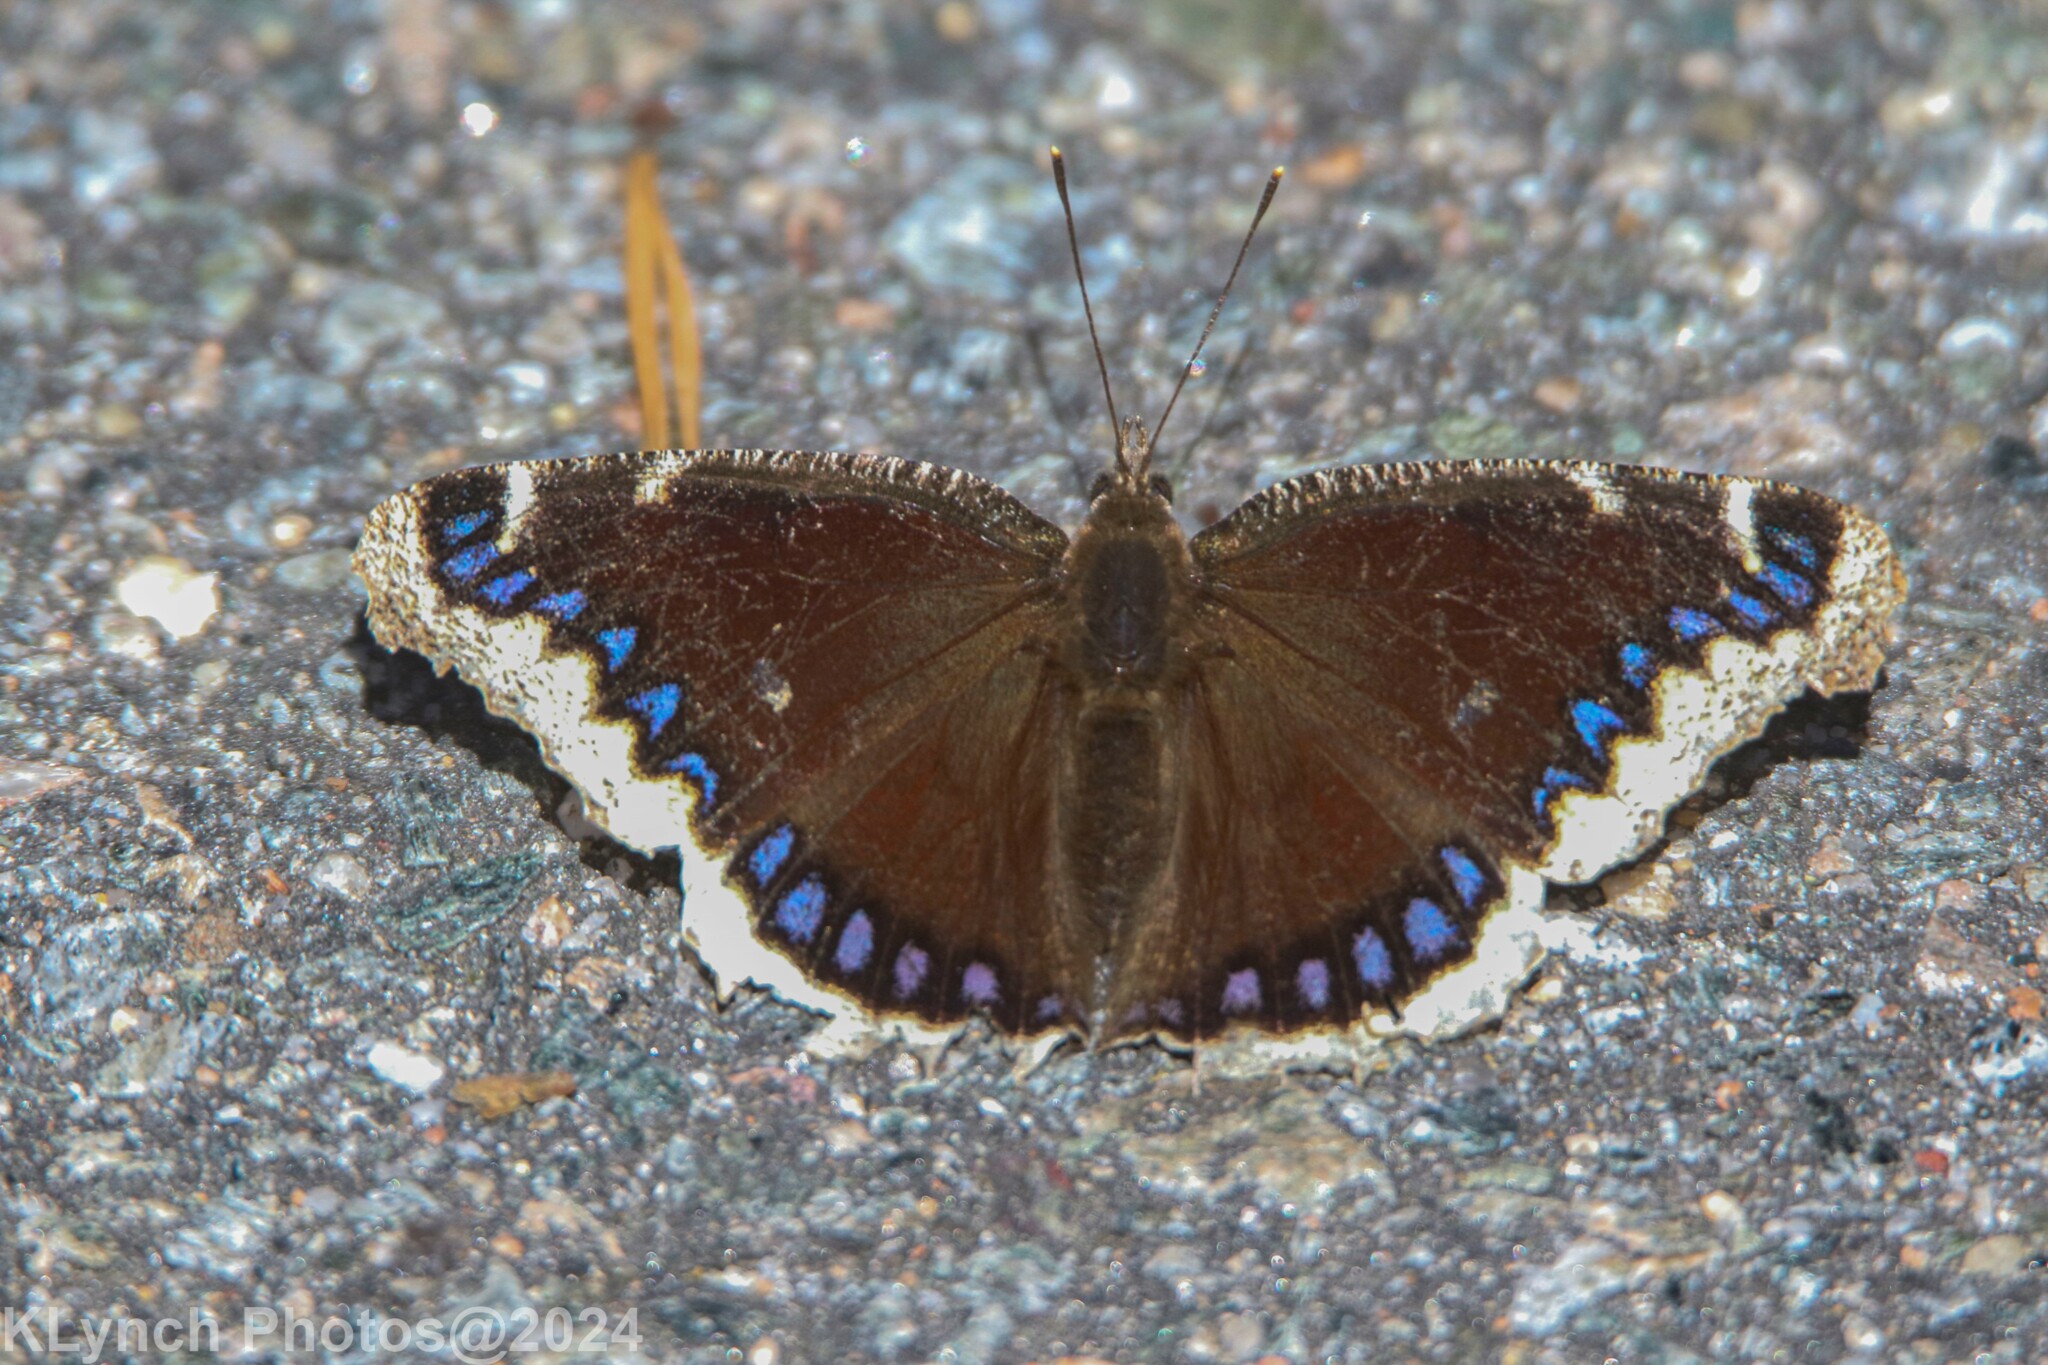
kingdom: Animalia
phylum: Arthropoda
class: Insecta
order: Lepidoptera
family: Nymphalidae
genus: Nymphalis
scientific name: Nymphalis antiopa
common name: Camberwell beauty
